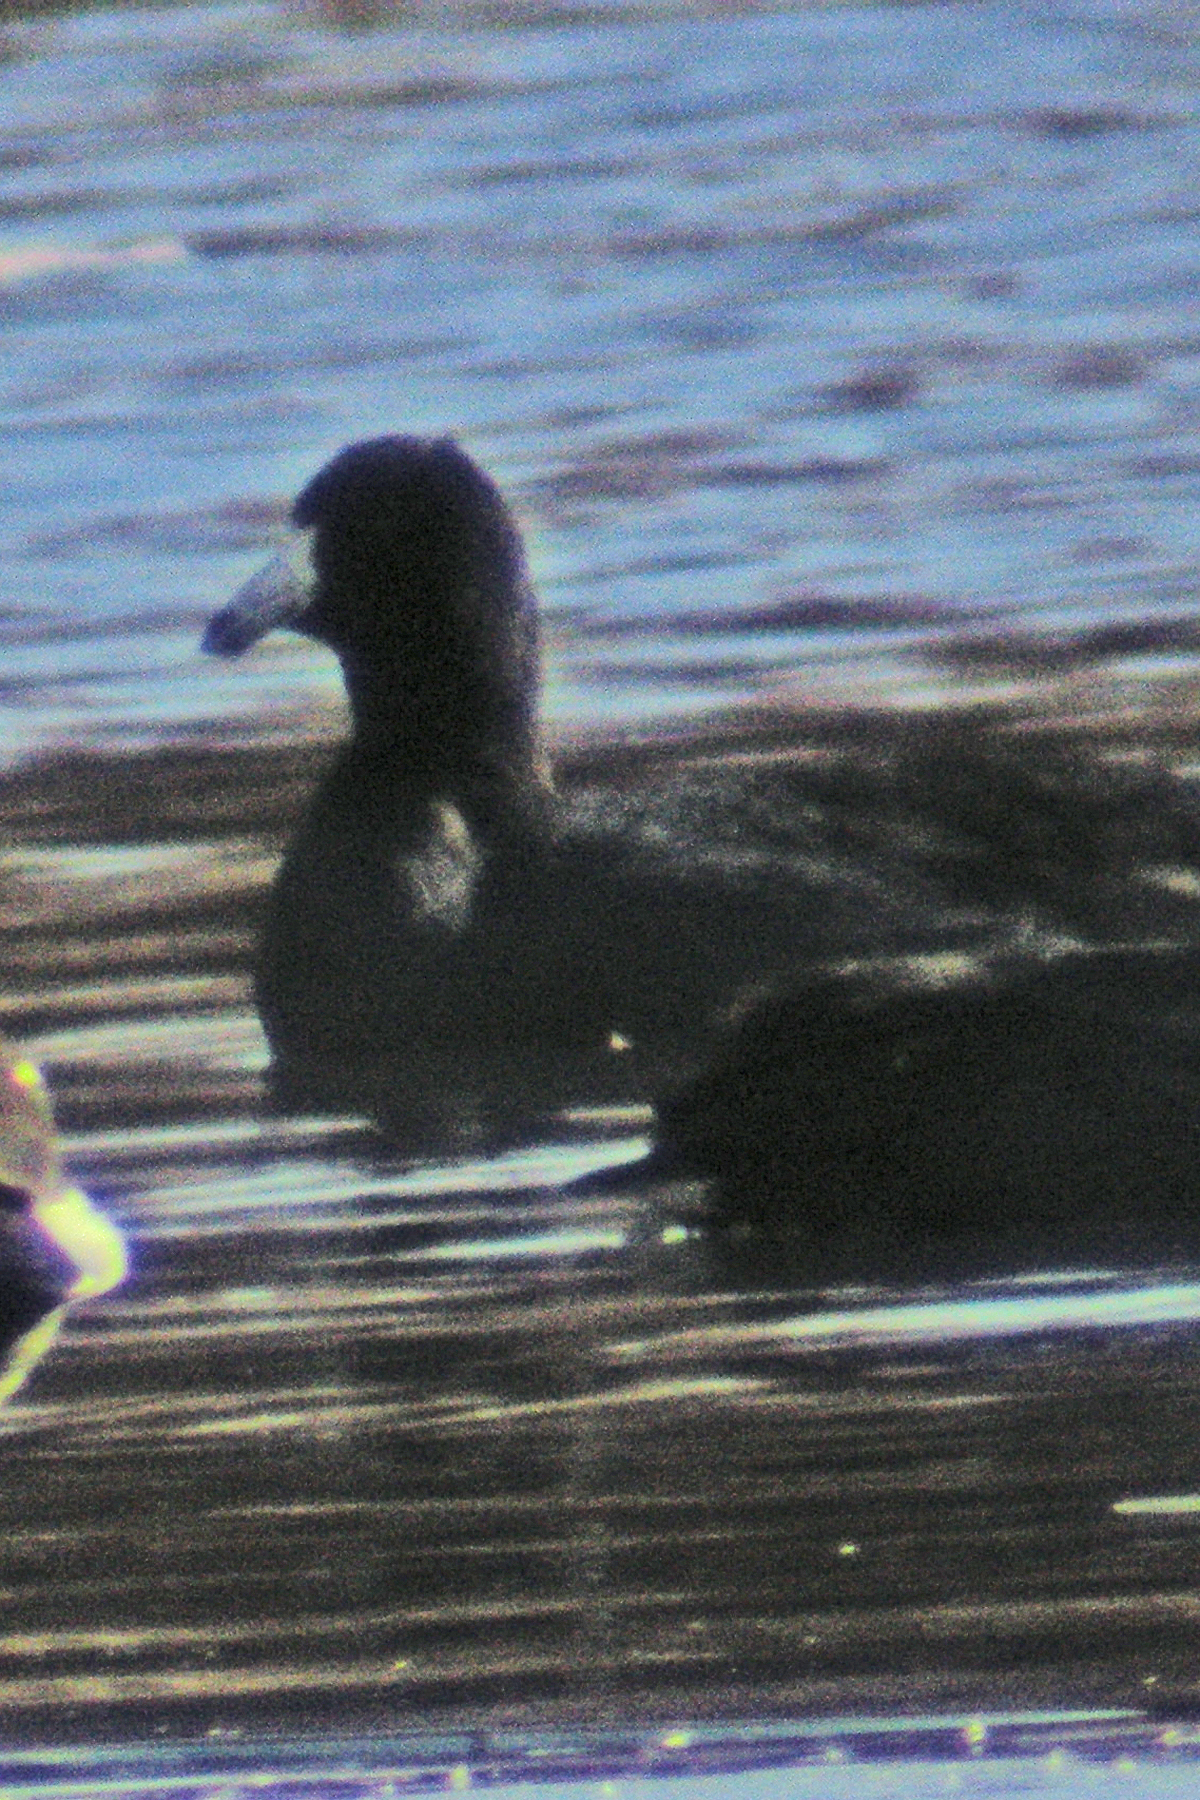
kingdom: Animalia
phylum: Chordata
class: Aves
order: Gruiformes
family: Rallidae
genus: Fulica
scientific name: Fulica americana
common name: American coot
